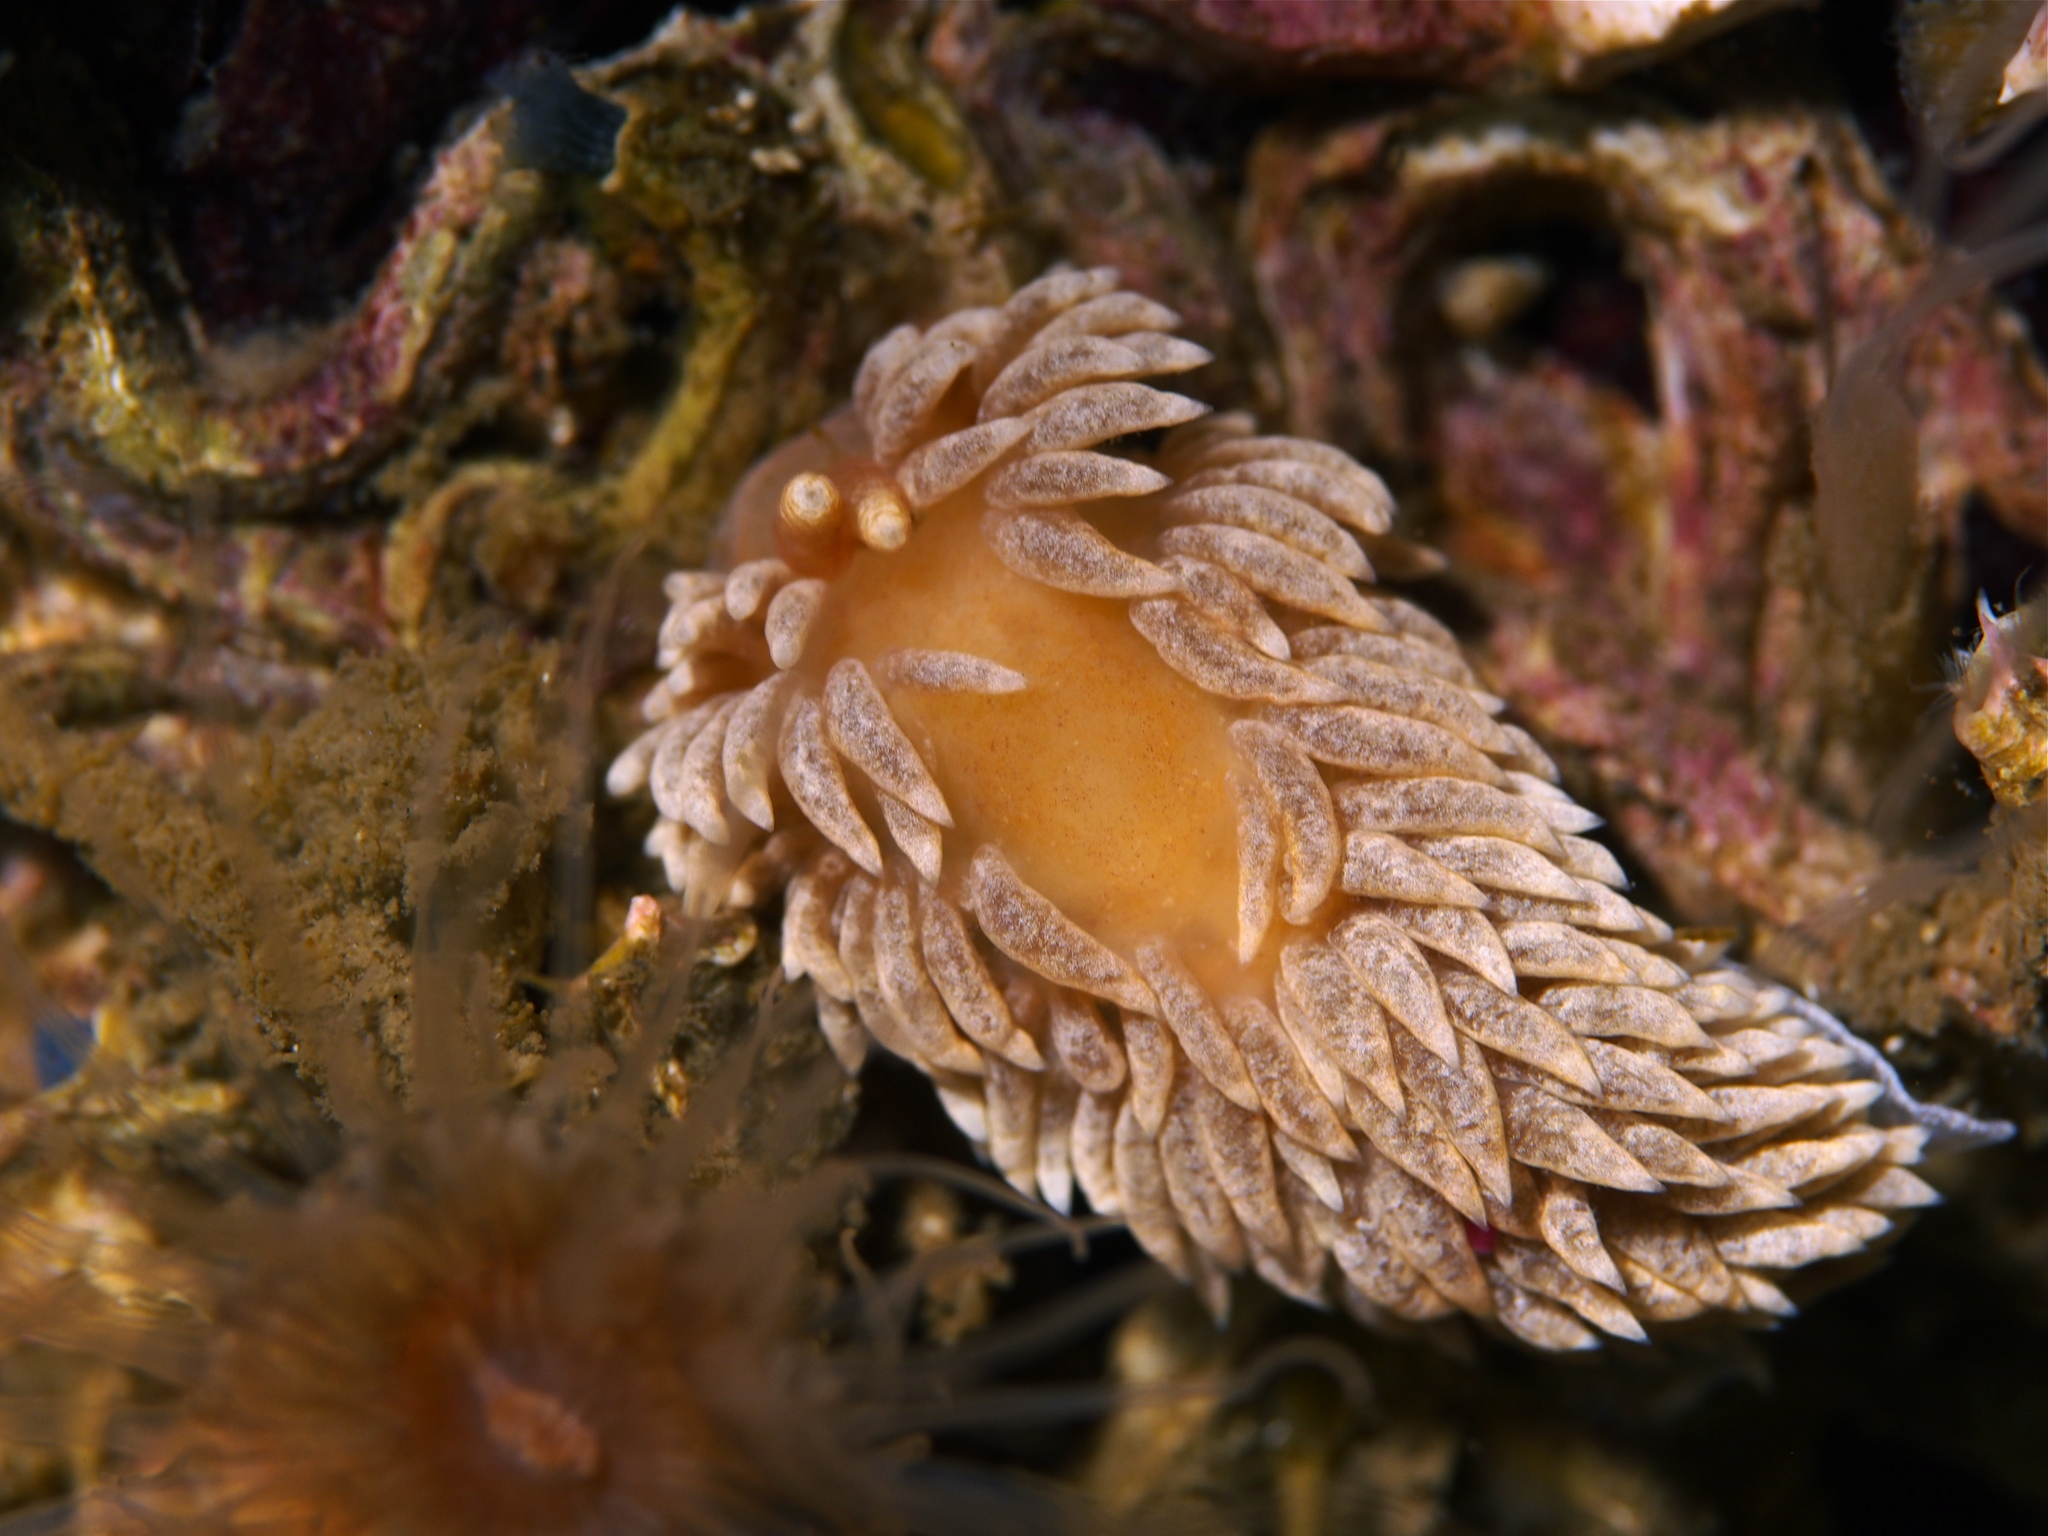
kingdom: Animalia
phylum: Mollusca
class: Gastropoda
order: Nudibranchia
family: Aeolidiidae
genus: Aeolidiella
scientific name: Aeolidiella glauca
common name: Orange-brown aeolid
